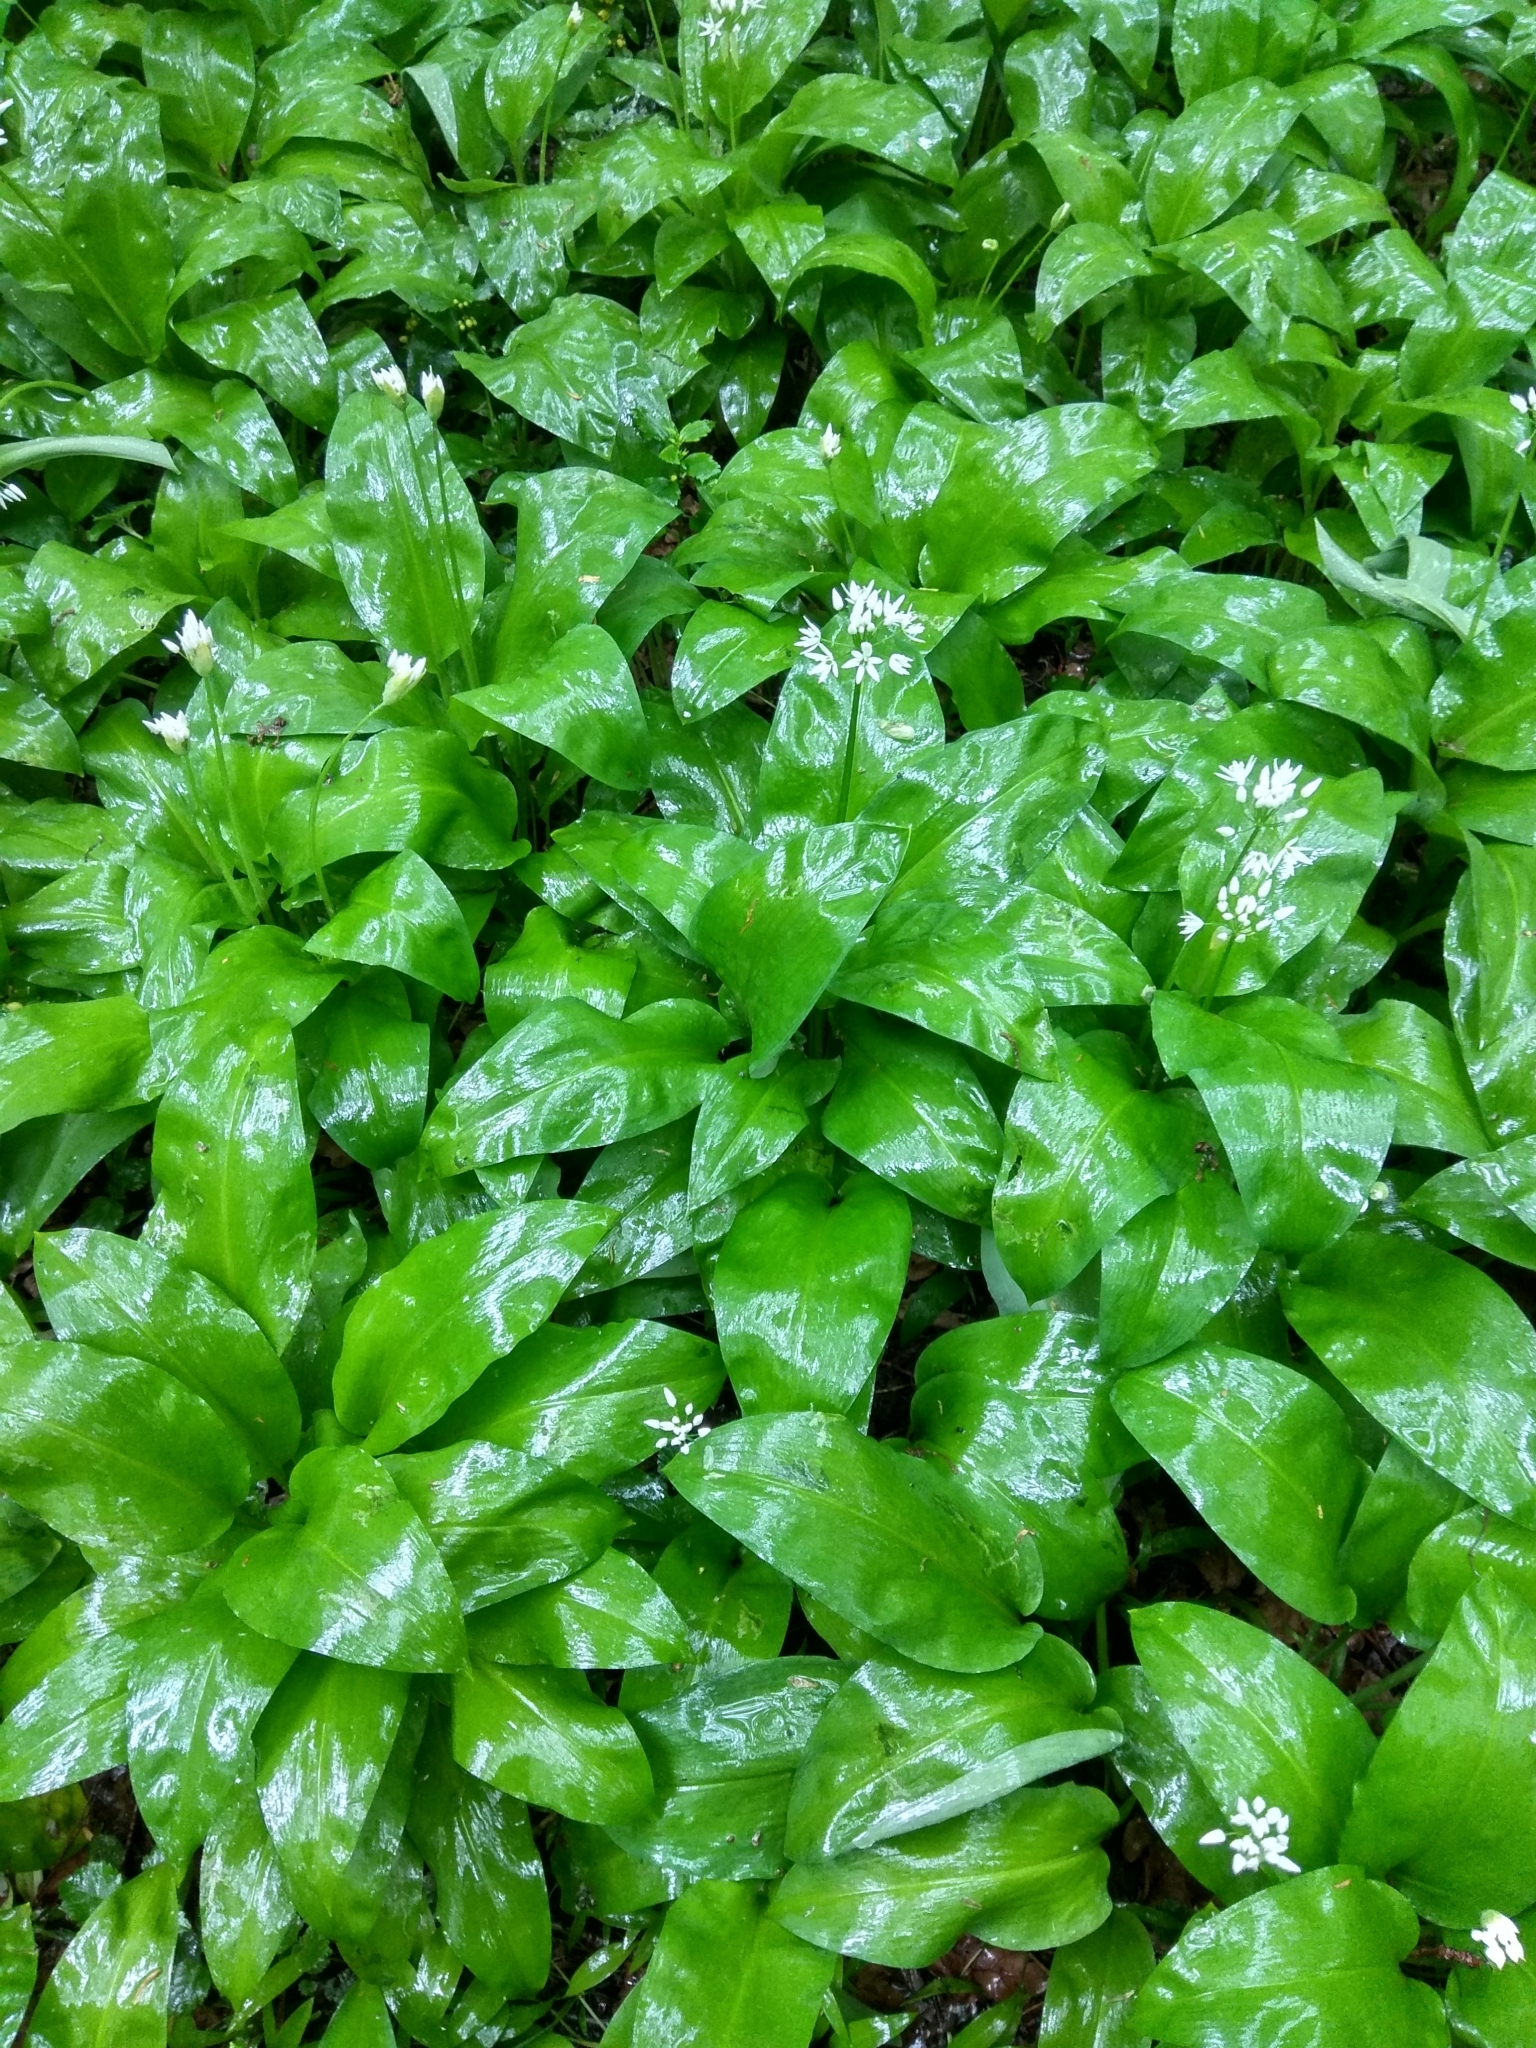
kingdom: Plantae
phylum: Tracheophyta
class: Liliopsida
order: Asparagales
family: Amaryllidaceae
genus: Allium
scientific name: Allium ursinum
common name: Ramsons
